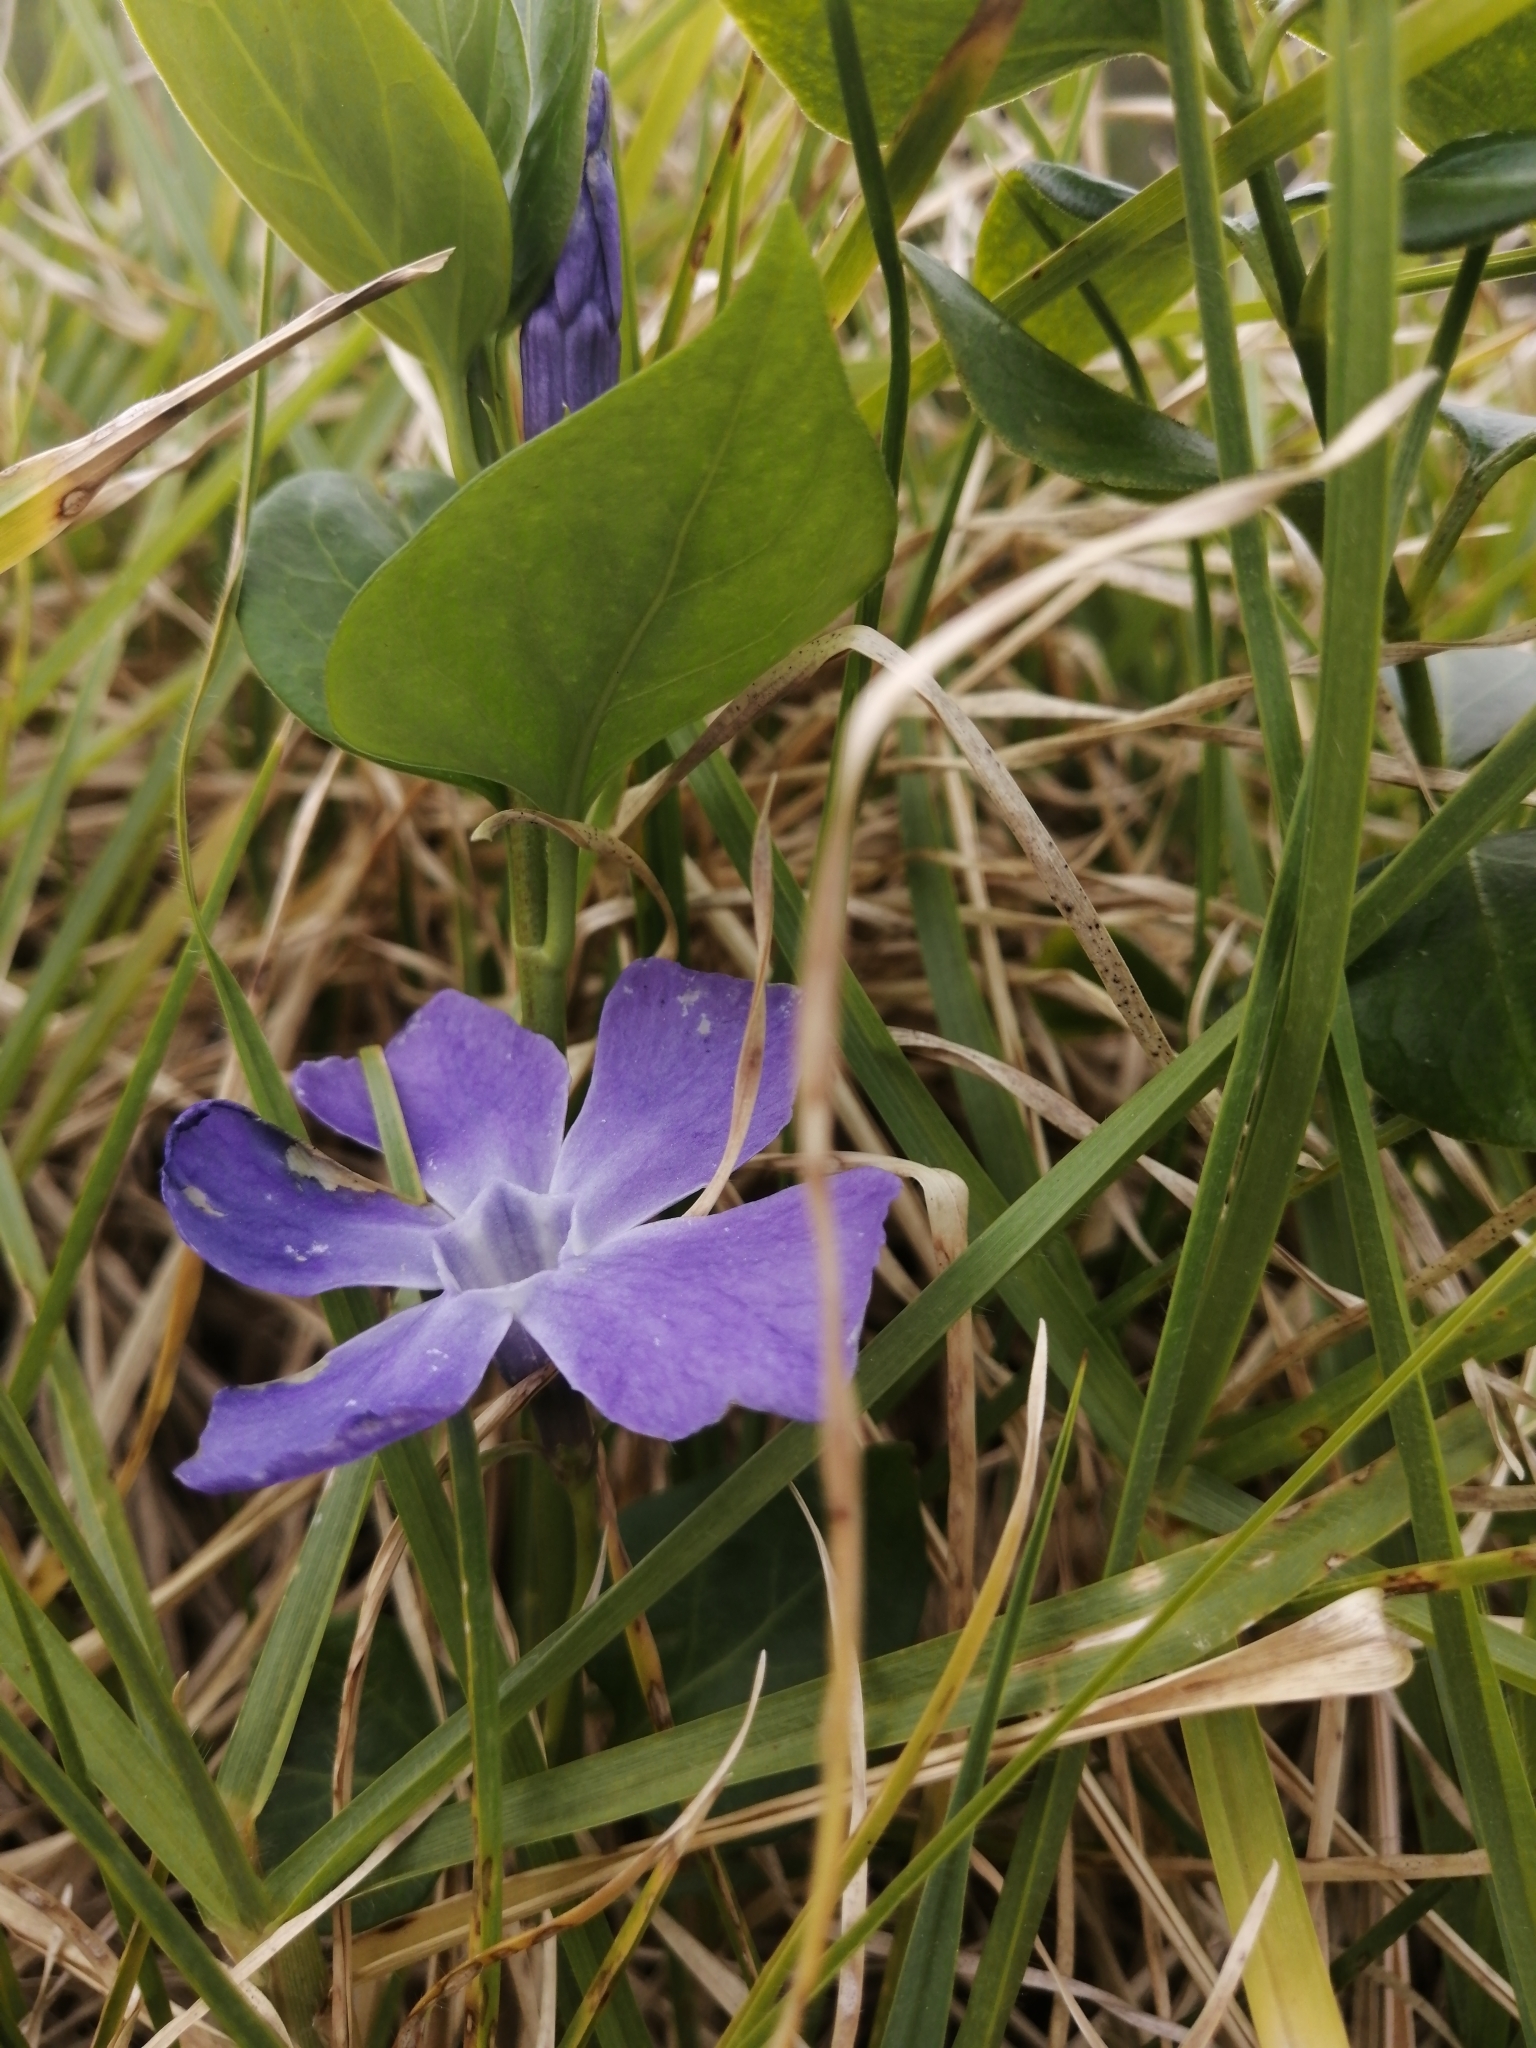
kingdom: Plantae
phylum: Tracheophyta
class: Magnoliopsida
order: Gentianales
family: Apocynaceae
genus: Vinca
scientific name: Vinca major
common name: Greater periwinkle
